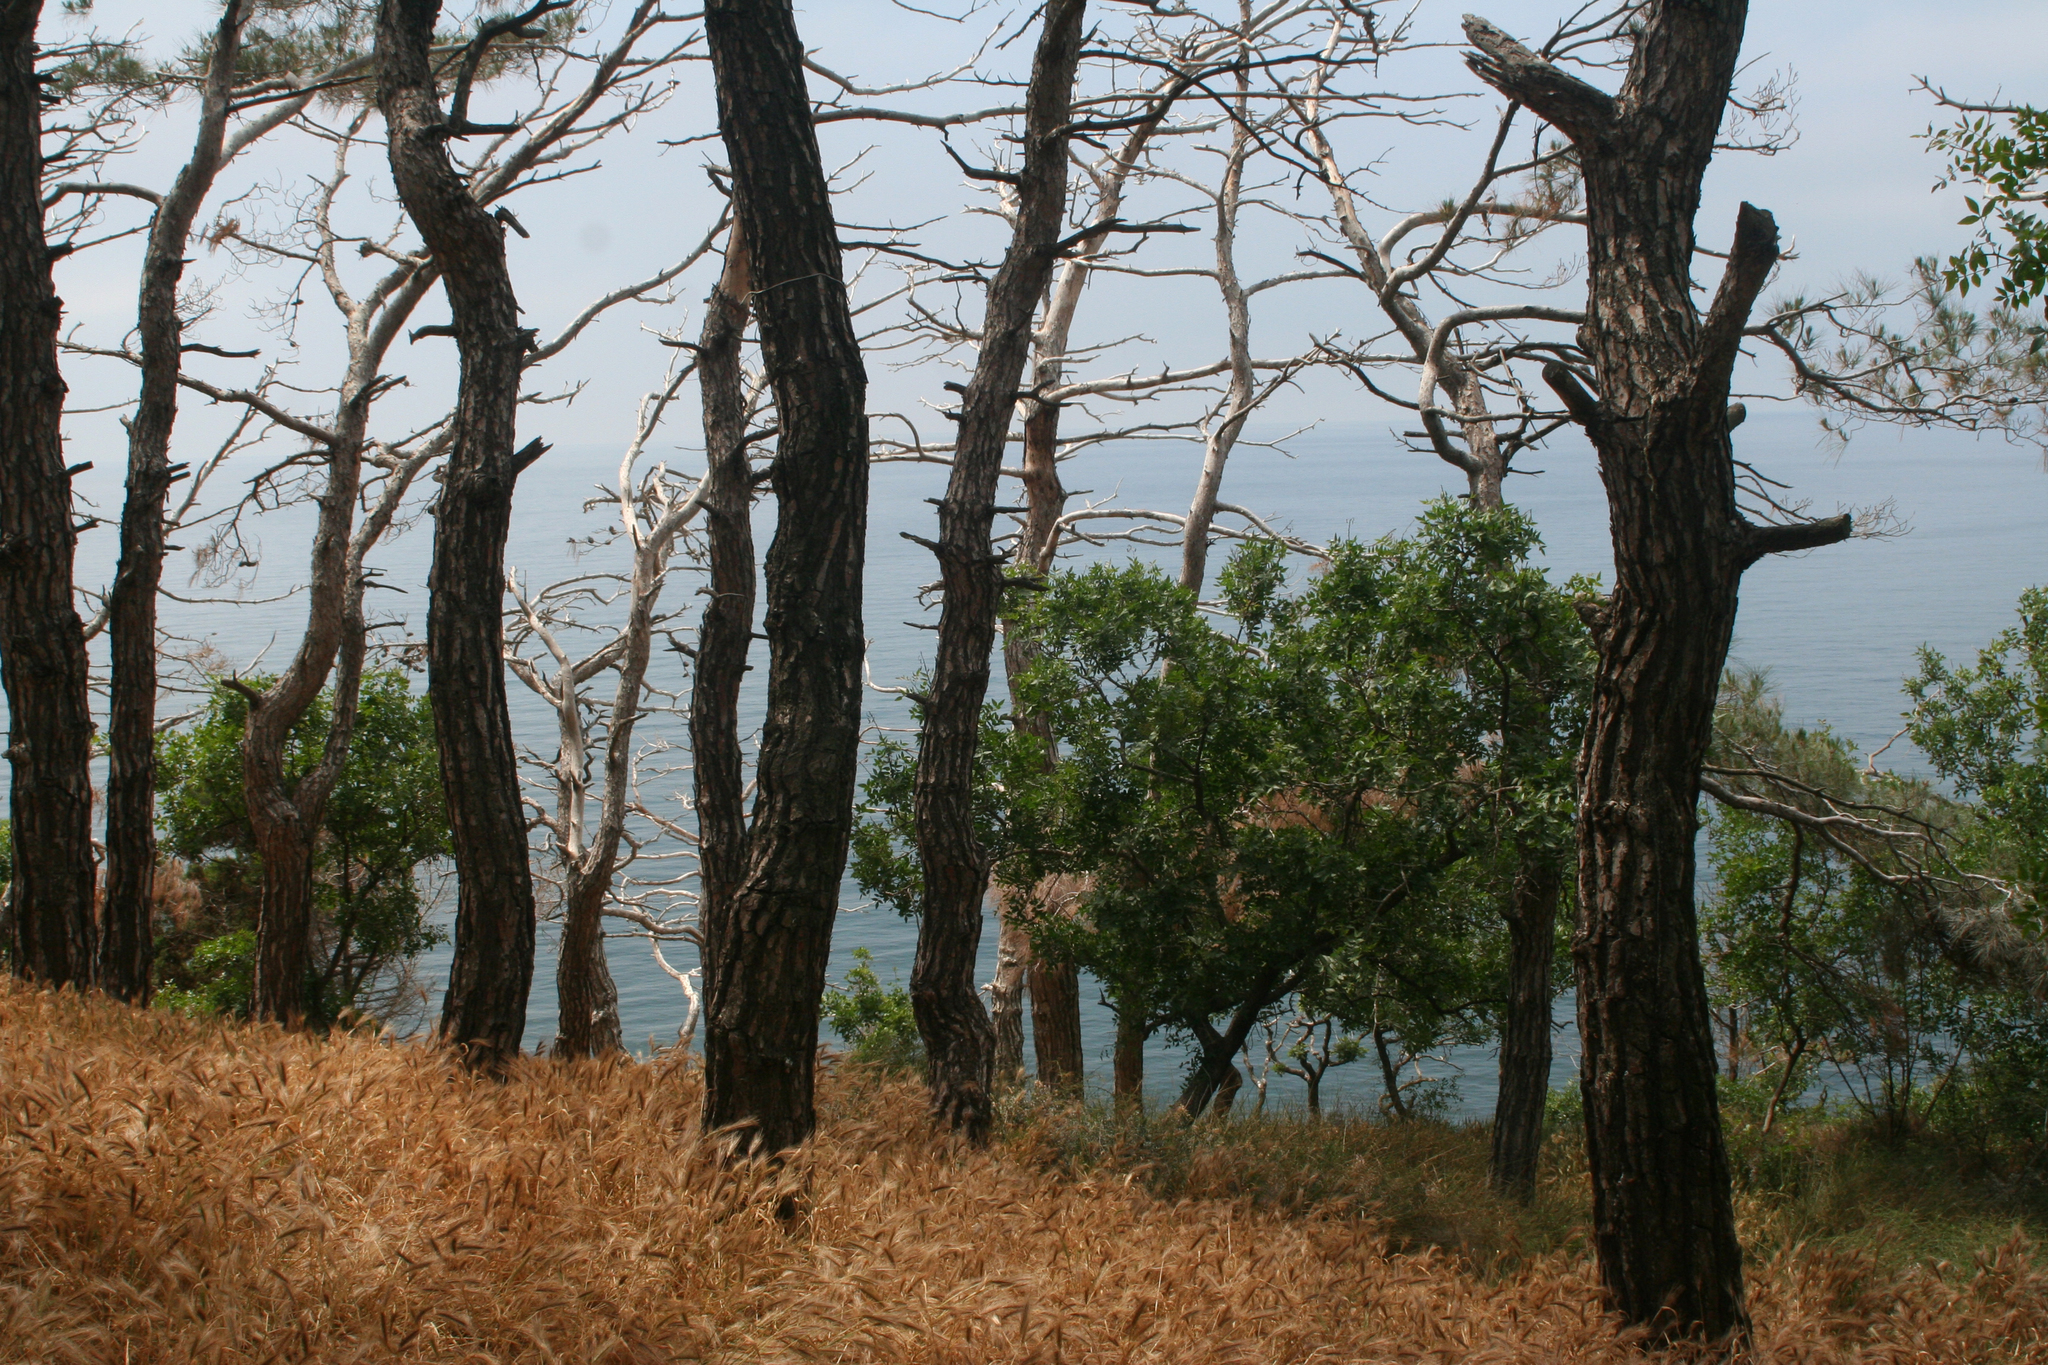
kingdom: Plantae
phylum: Tracheophyta
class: Magnoliopsida
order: Fagales
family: Fagaceae
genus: Quercus
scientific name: Quercus pubescens
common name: Downy oak
